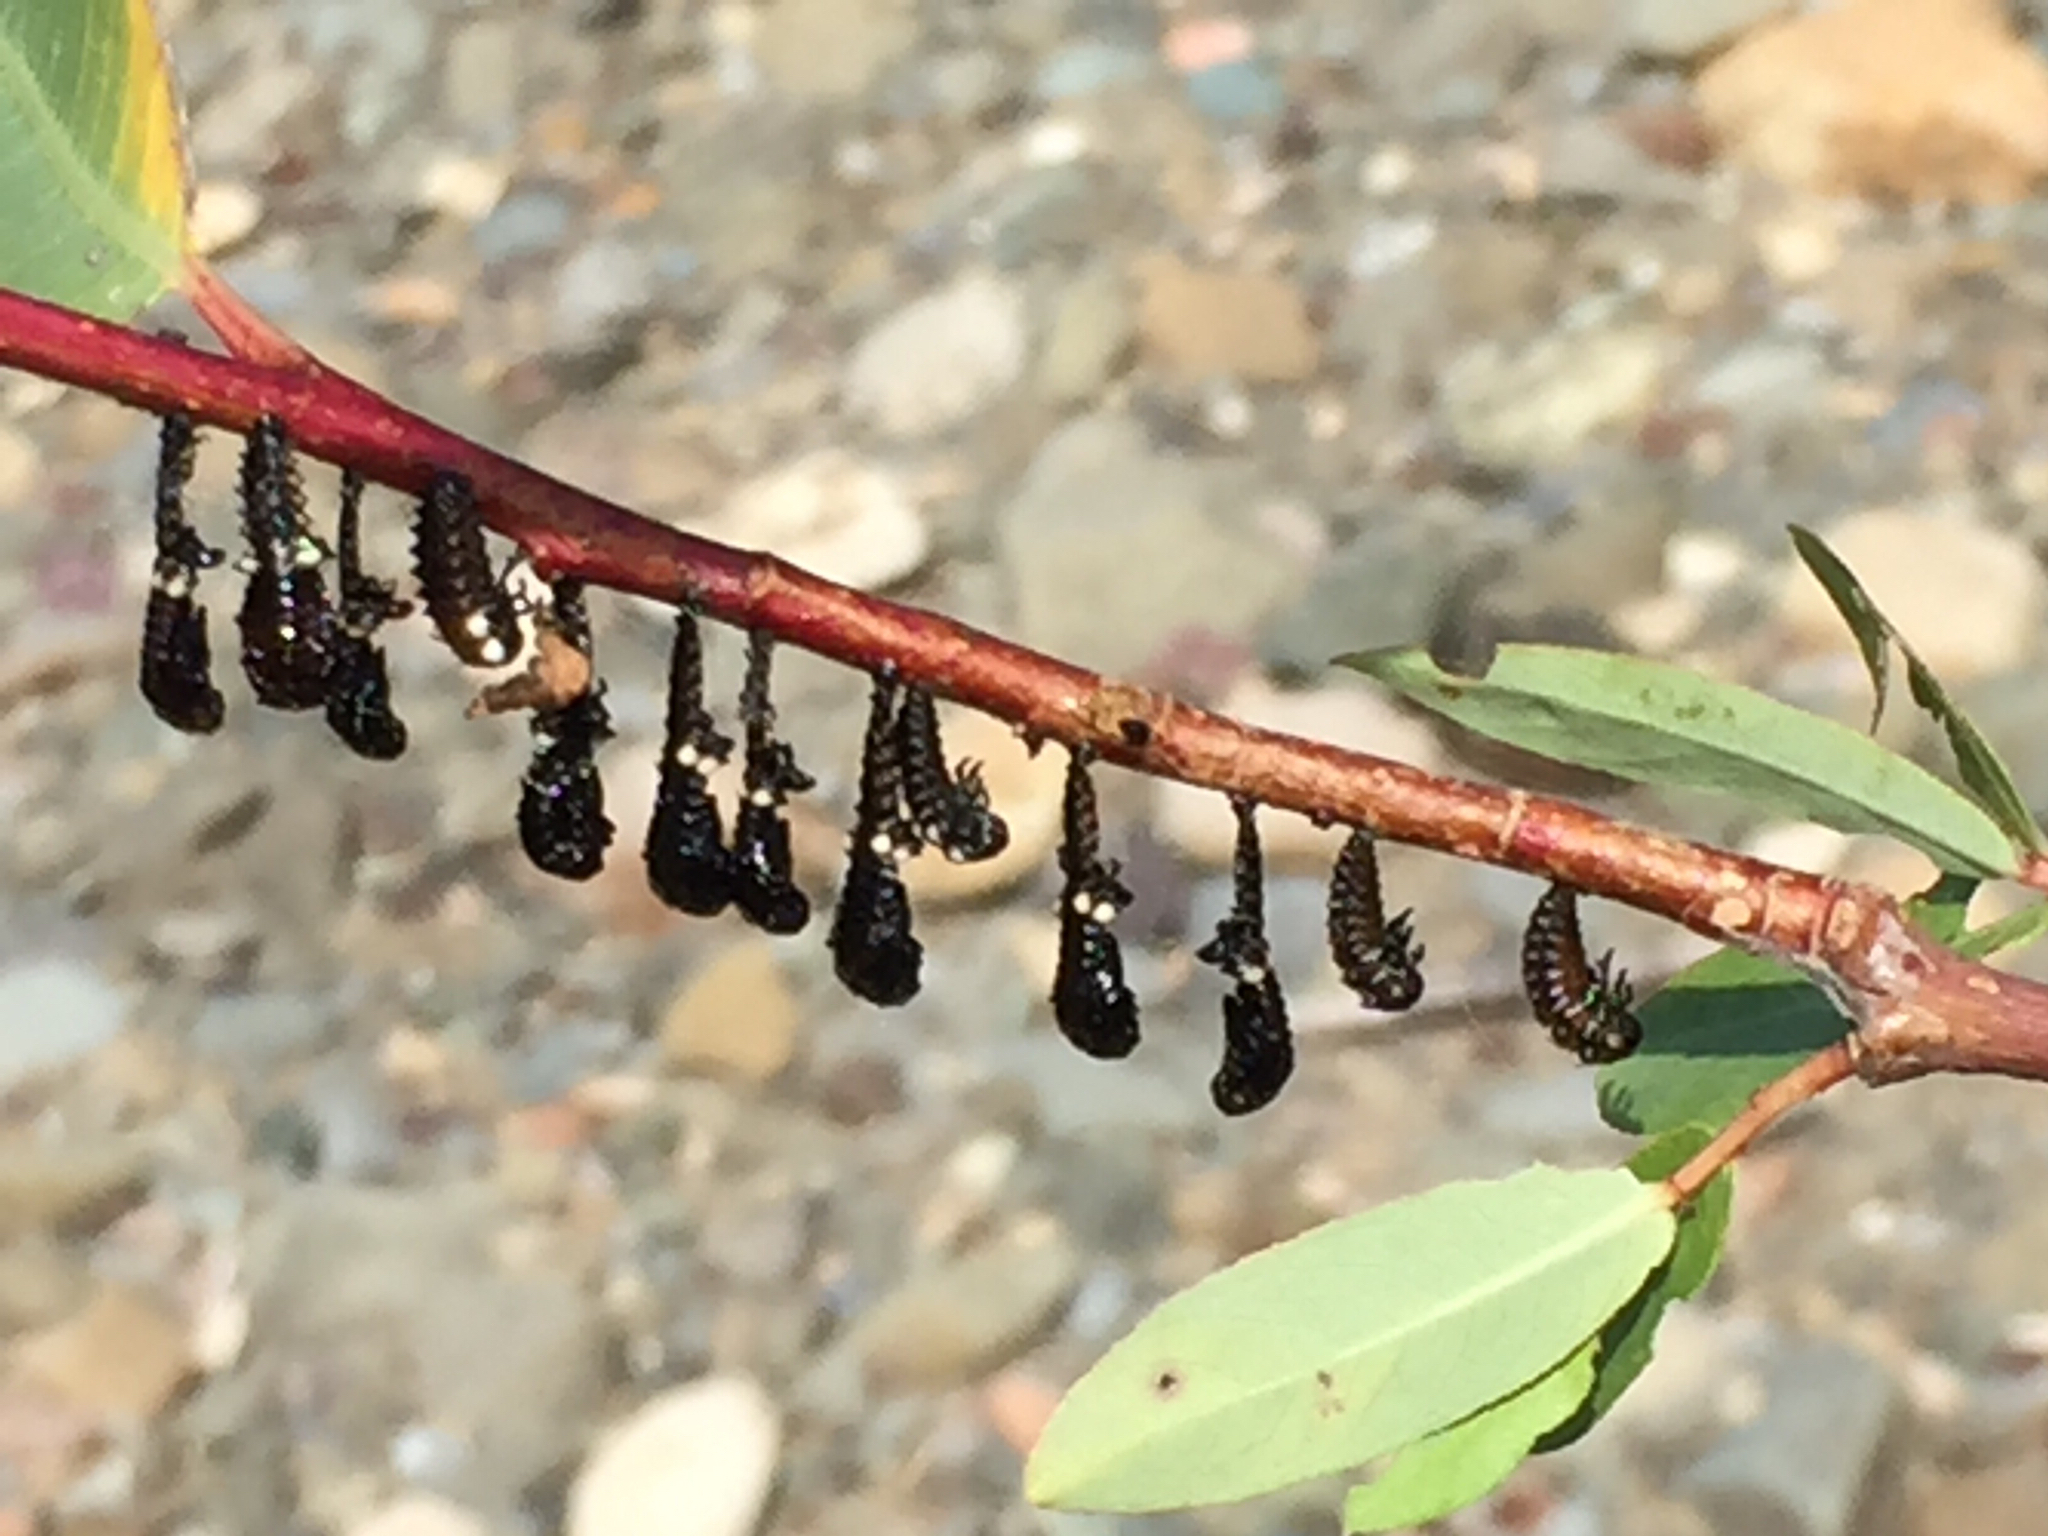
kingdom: Animalia
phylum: Arthropoda
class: Insecta
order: Coleoptera
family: Chrysomelidae
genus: Chrysomela
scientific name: Chrysomela confluens
